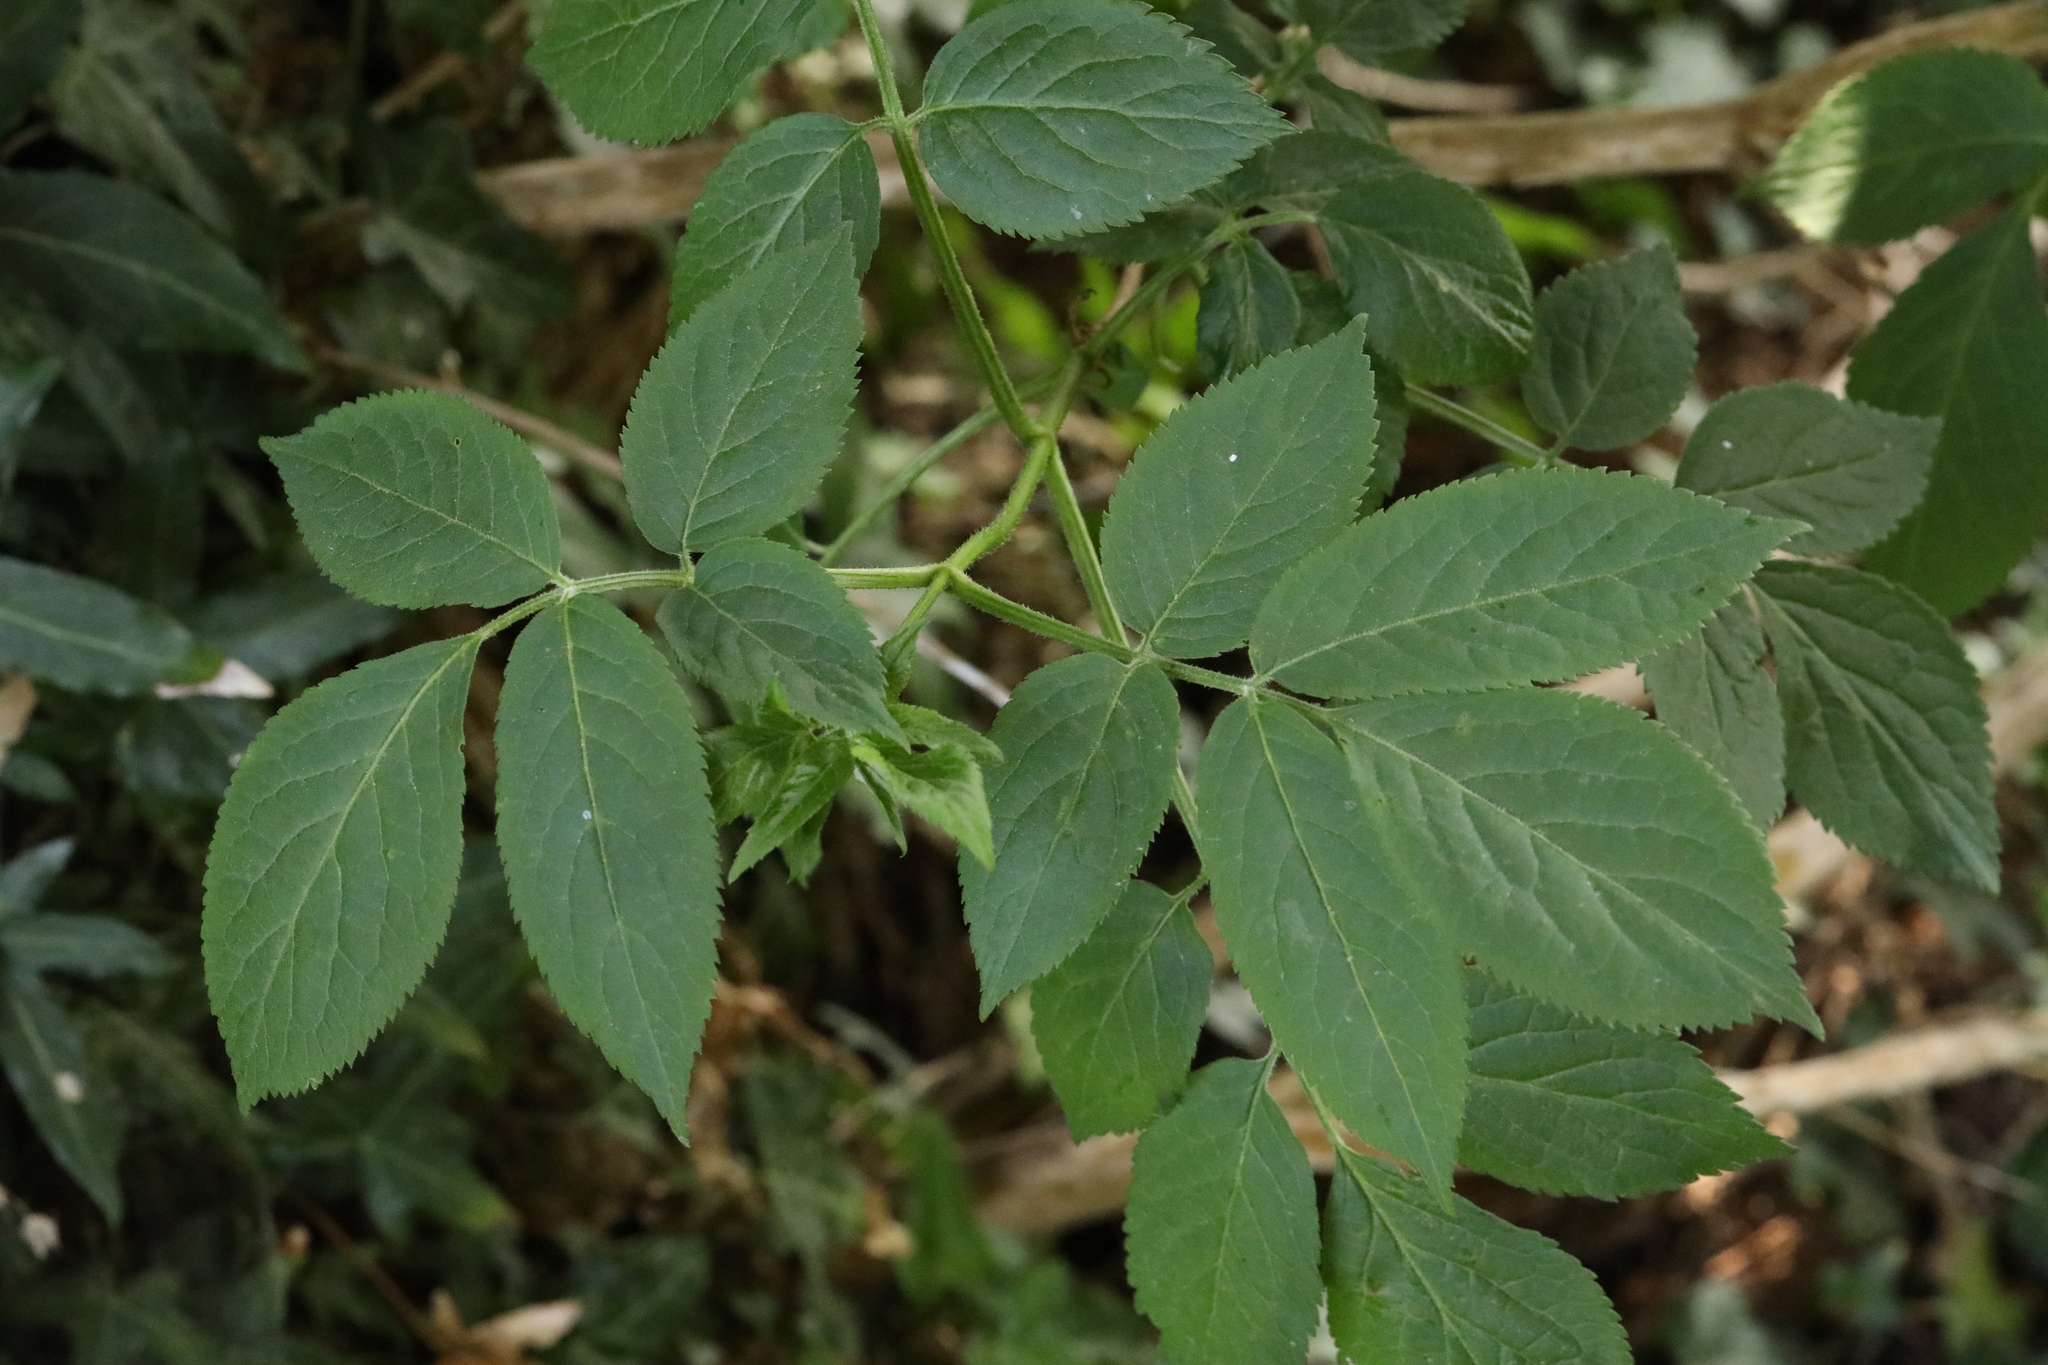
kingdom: Plantae
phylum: Tracheophyta
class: Magnoliopsida
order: Dipsacales
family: Viburnaceae
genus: Sambucus
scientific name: Sambucus nigra
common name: Elder
